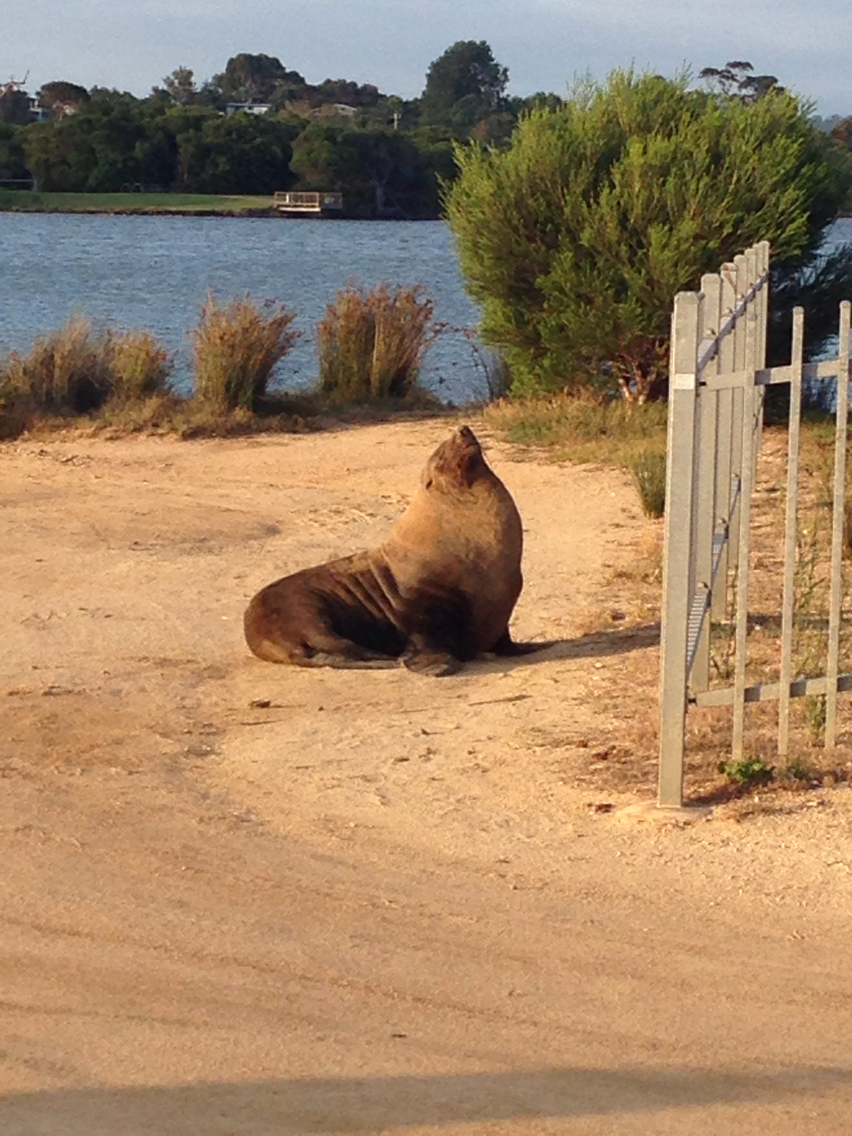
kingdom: Animalia
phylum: Chordata
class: Mammalia
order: Carnivora
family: Otariidae
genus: Arctocephalus
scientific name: Arctocephalus pusillus
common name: Brown fur seal
